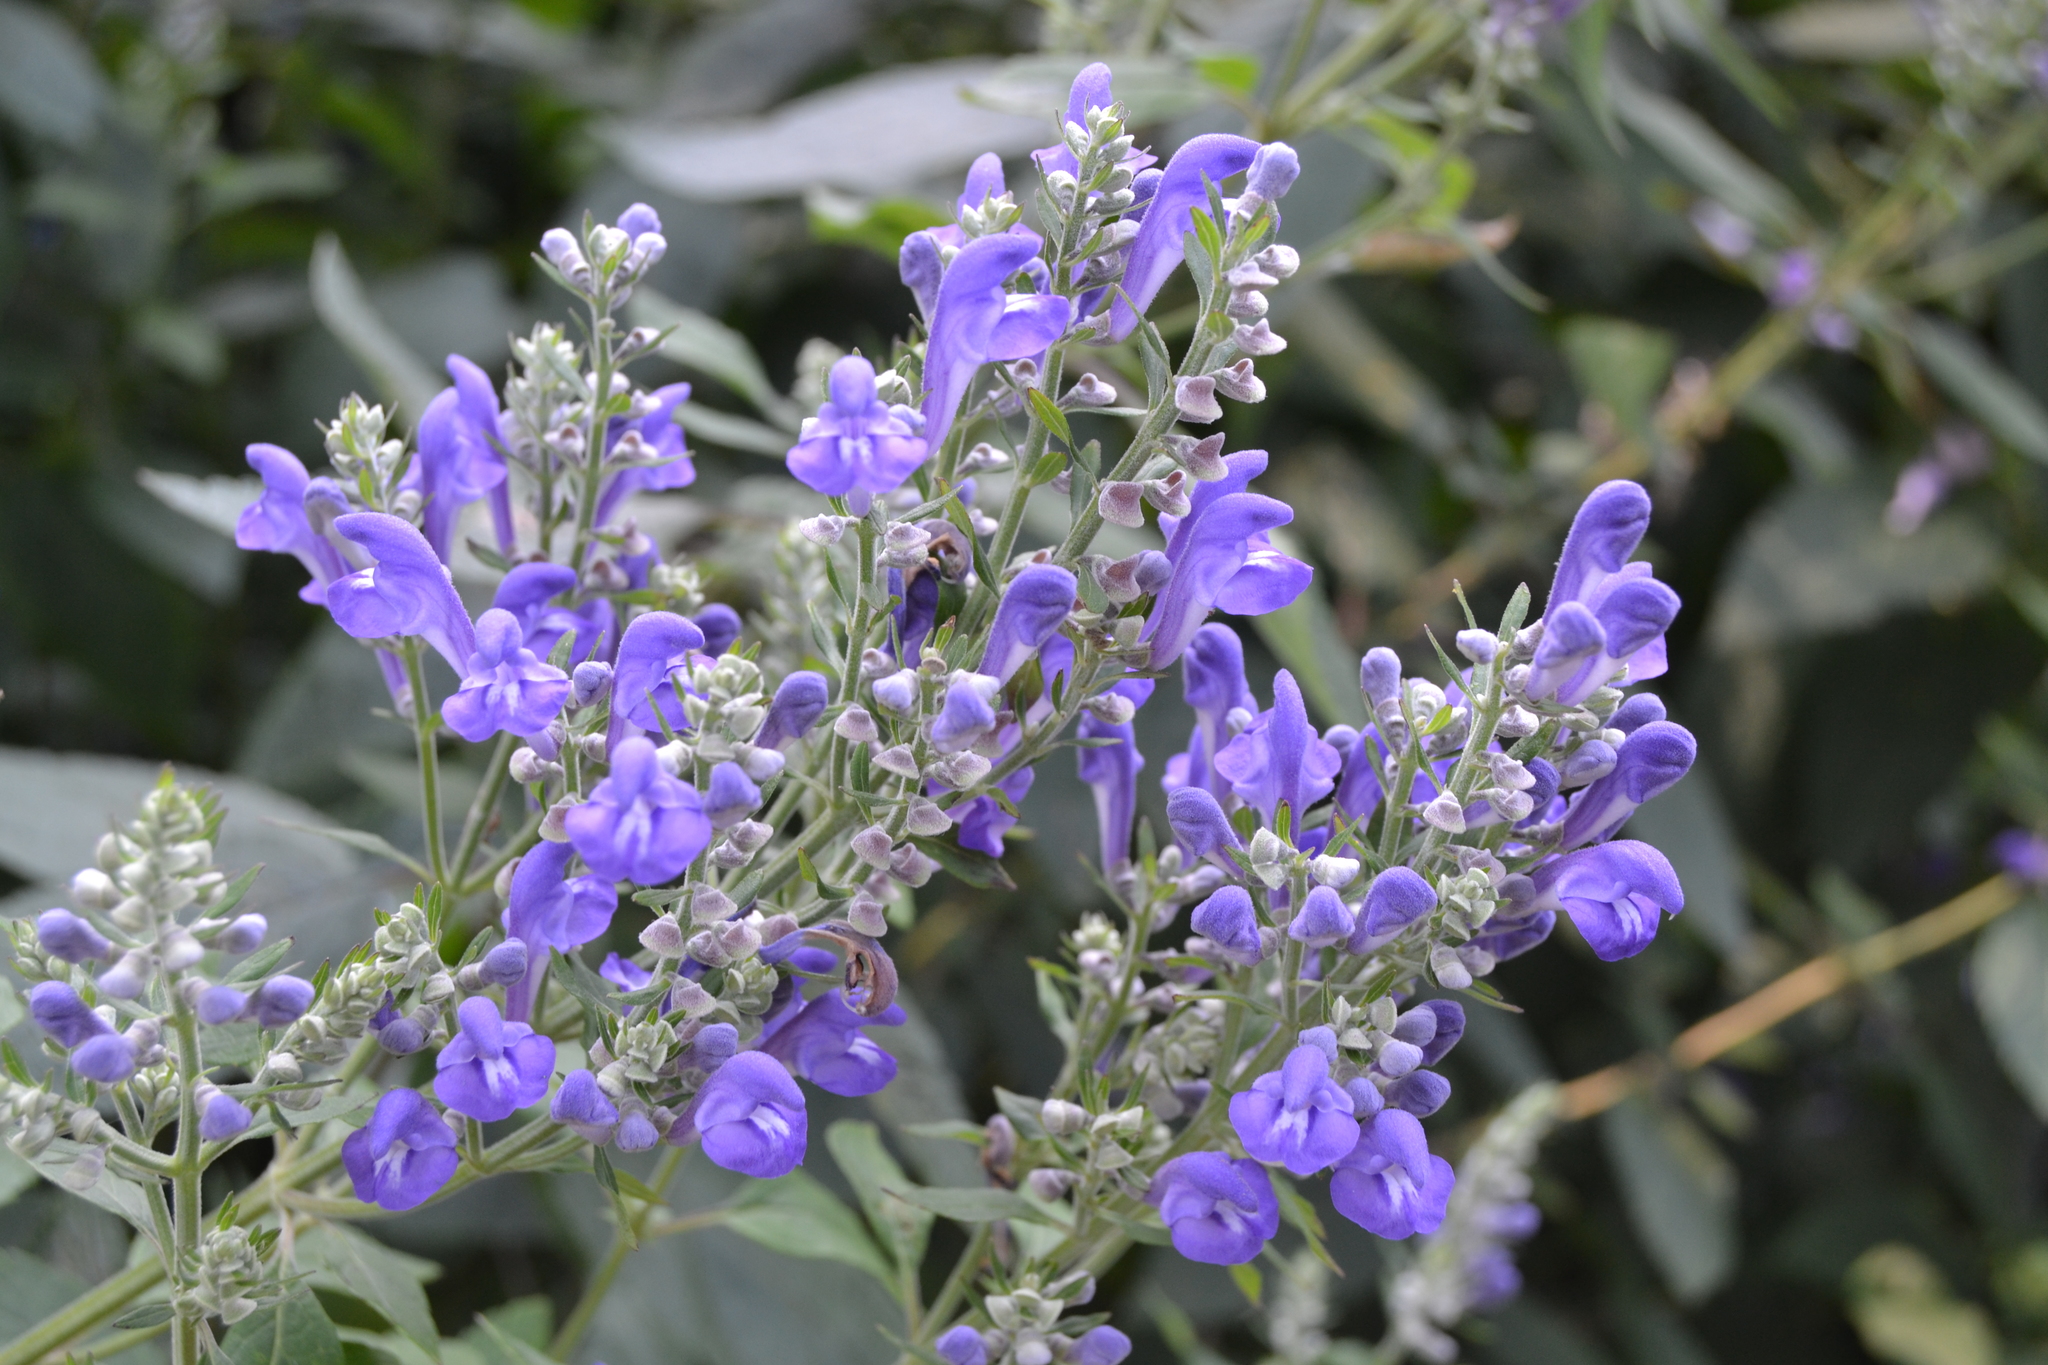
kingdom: Plantae
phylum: Tracheophyta
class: Magnoliopsida
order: Lamiales
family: Lamiaceae
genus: Scutellaria
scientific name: Scutellaria incana
